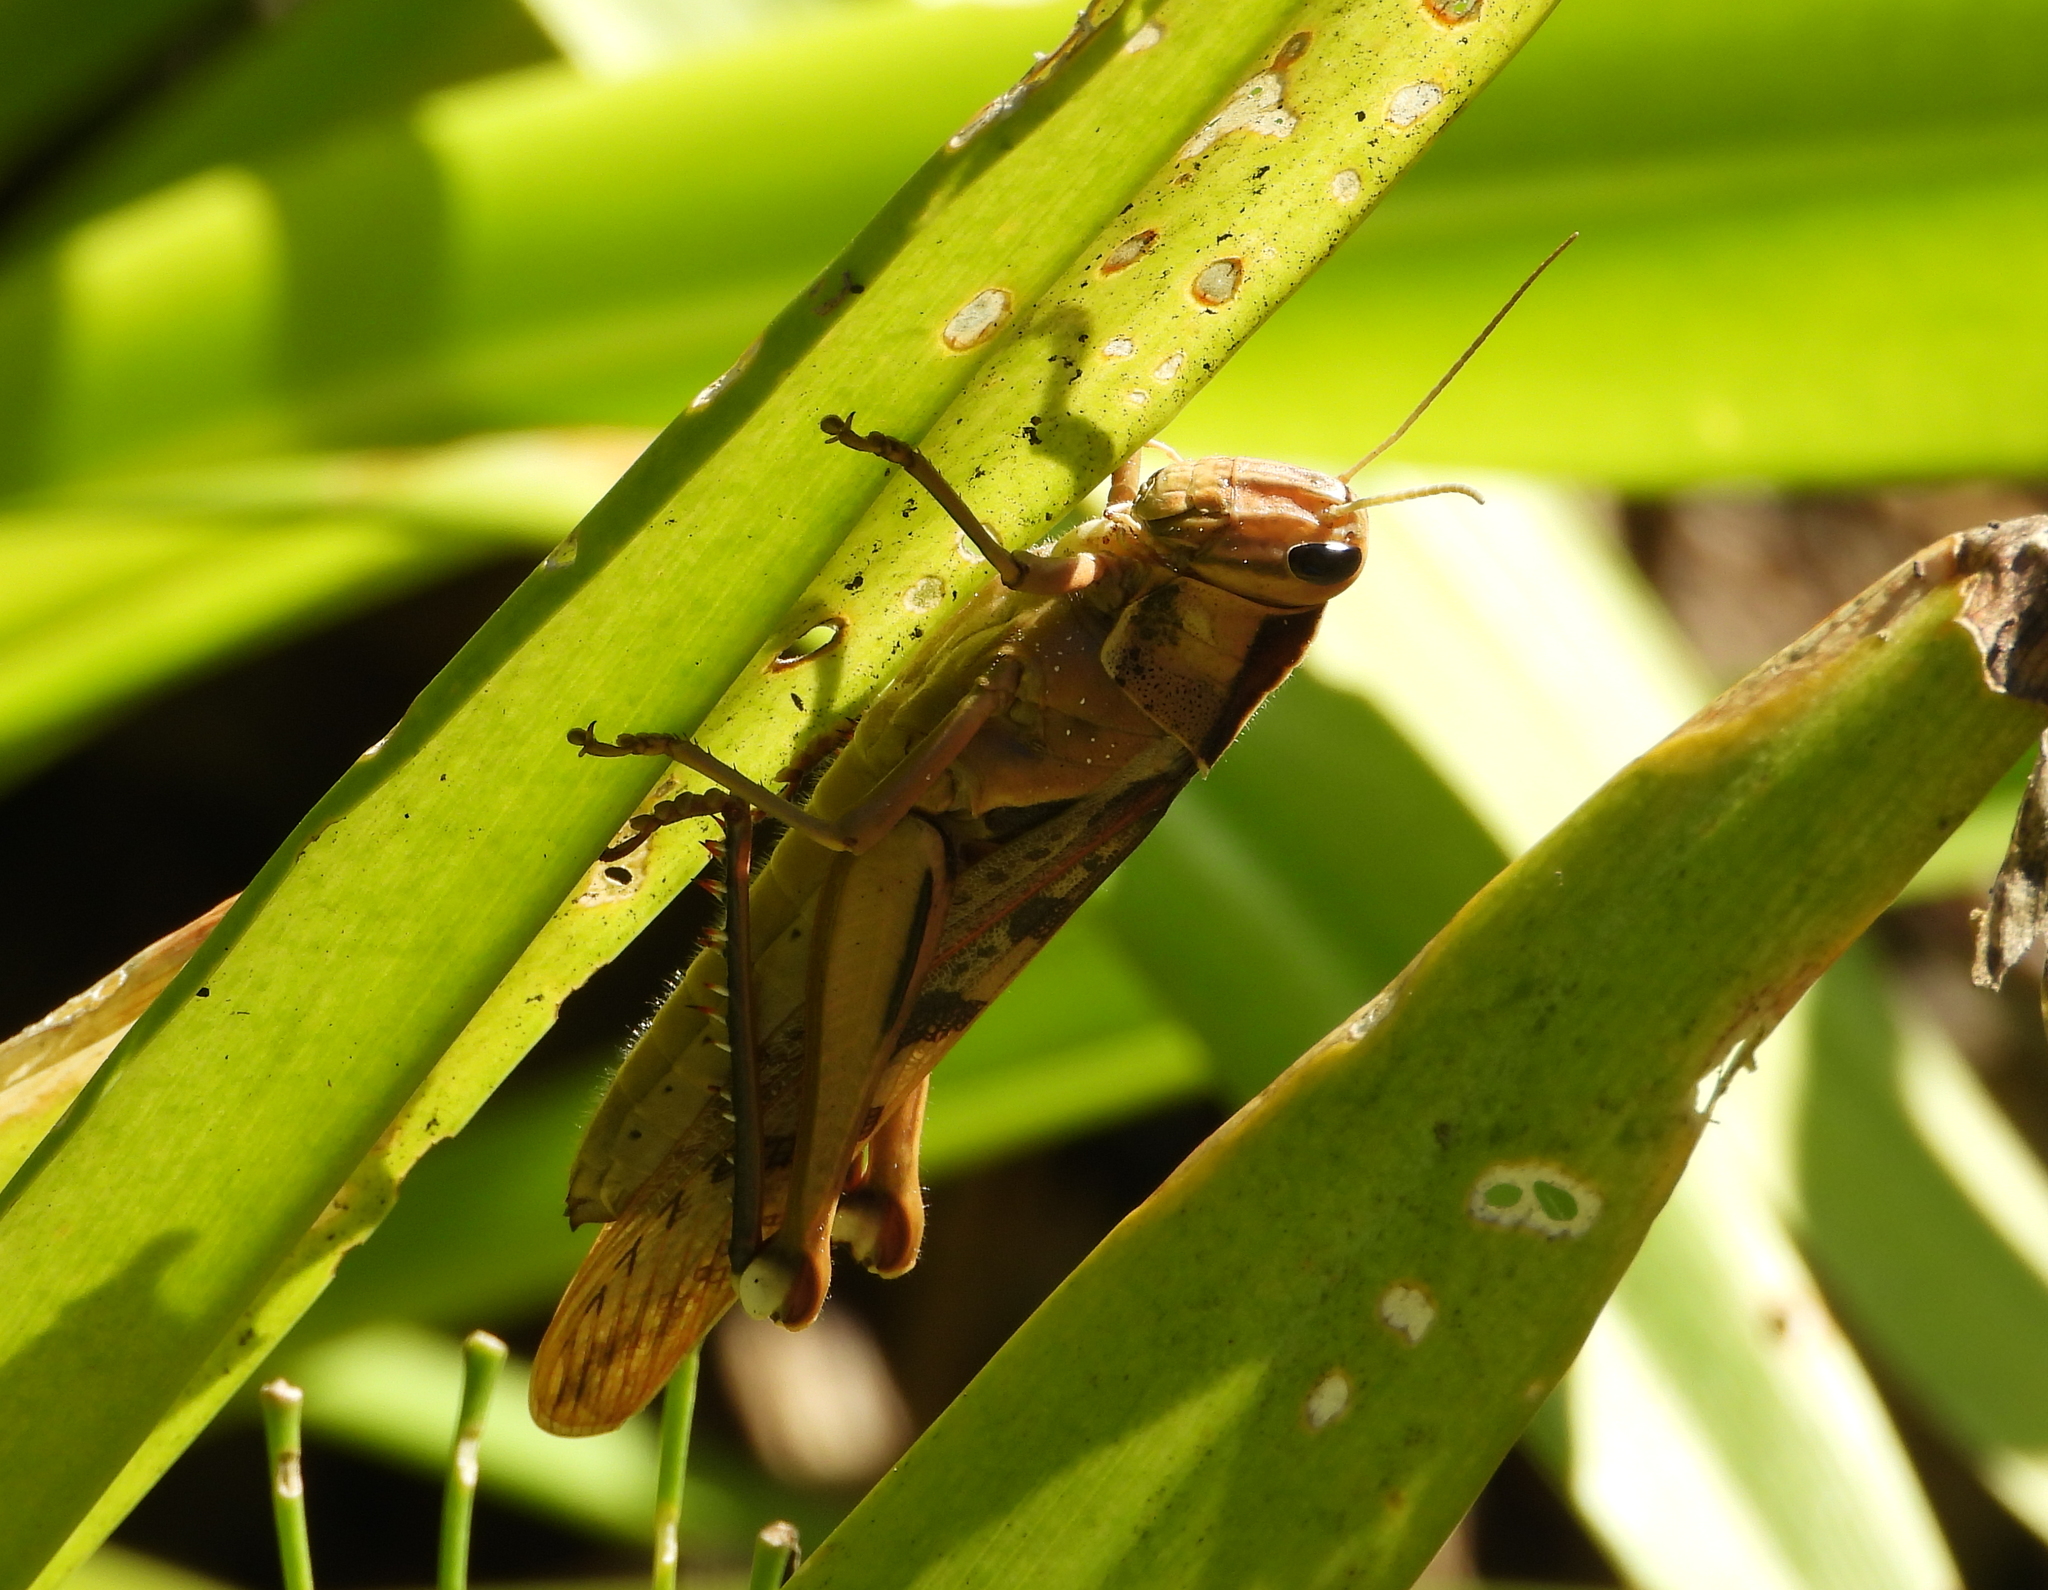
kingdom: Animalia
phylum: Arthropoda
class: Insecta
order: Orthoptera
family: Acrididae
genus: Acanthacris
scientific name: Acanthacris ruficornis
